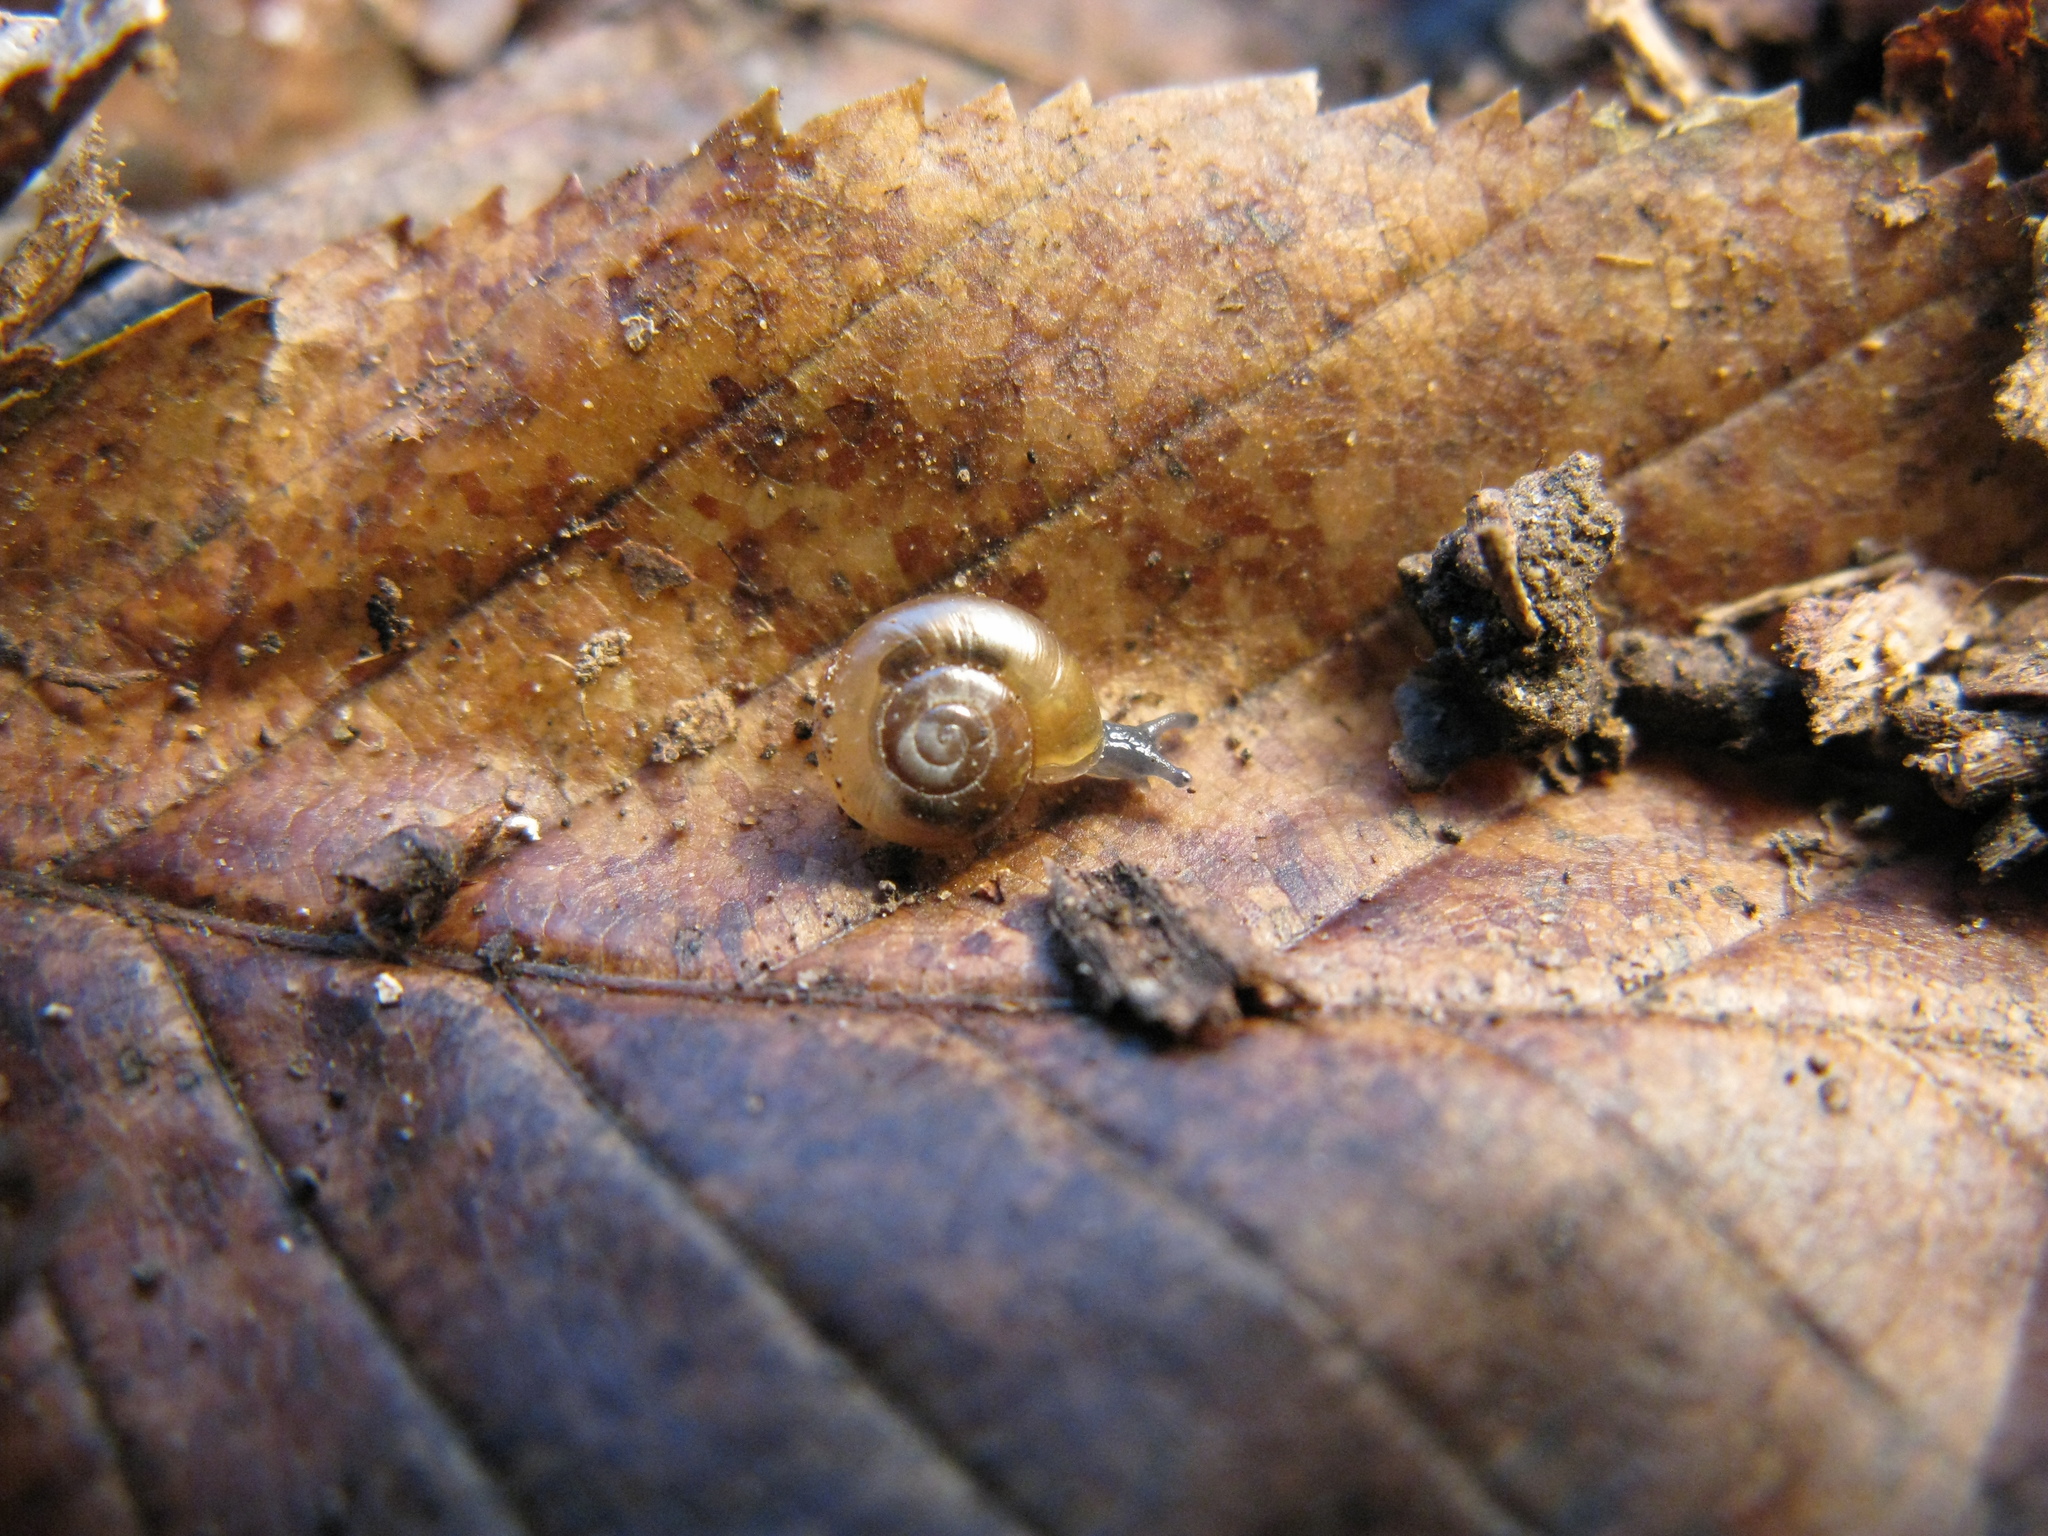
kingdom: Animalia
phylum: Mollusca
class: Gastropoda
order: Stylommatophora
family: Gastrodontidae
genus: Aegopinella
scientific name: Aegopinella minor
